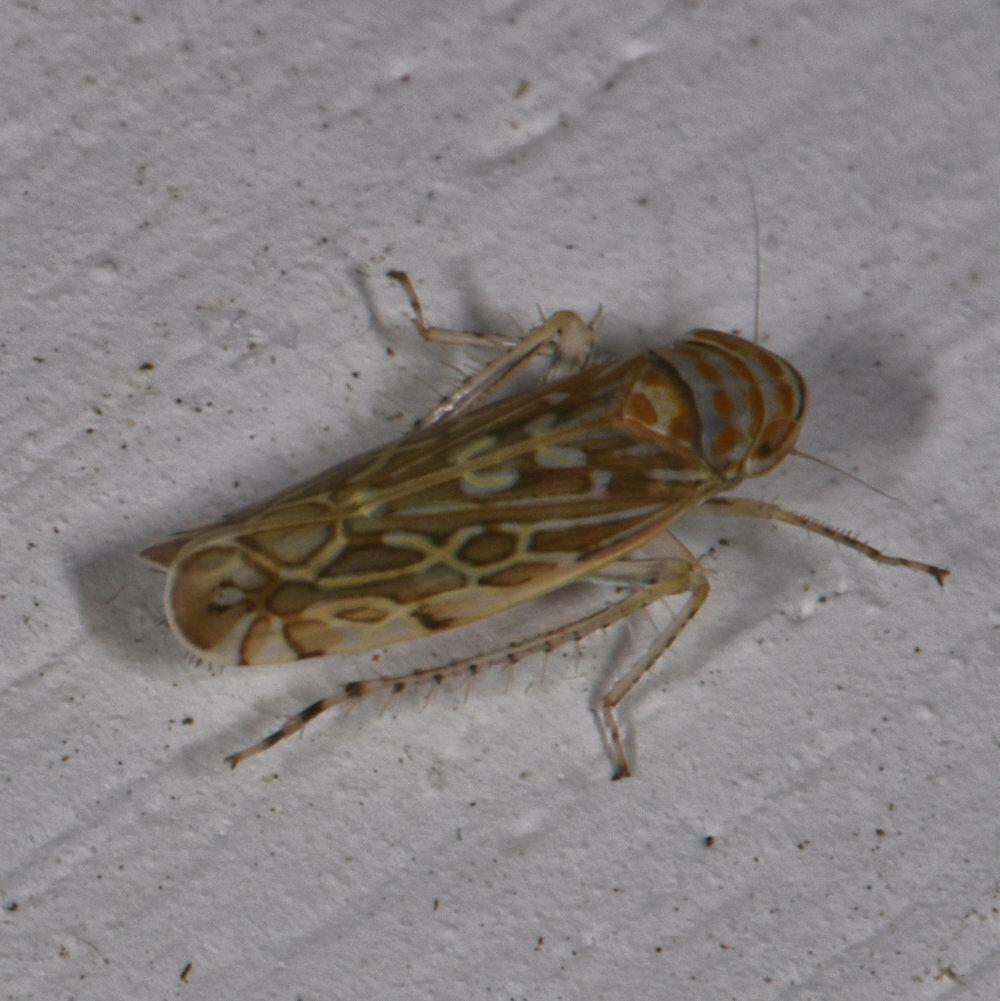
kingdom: Animalia
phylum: Arthropoda
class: Insecta
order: Hemiptera
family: Cicadellidae
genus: Paralimnus
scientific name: Paralimnus phragmitis
